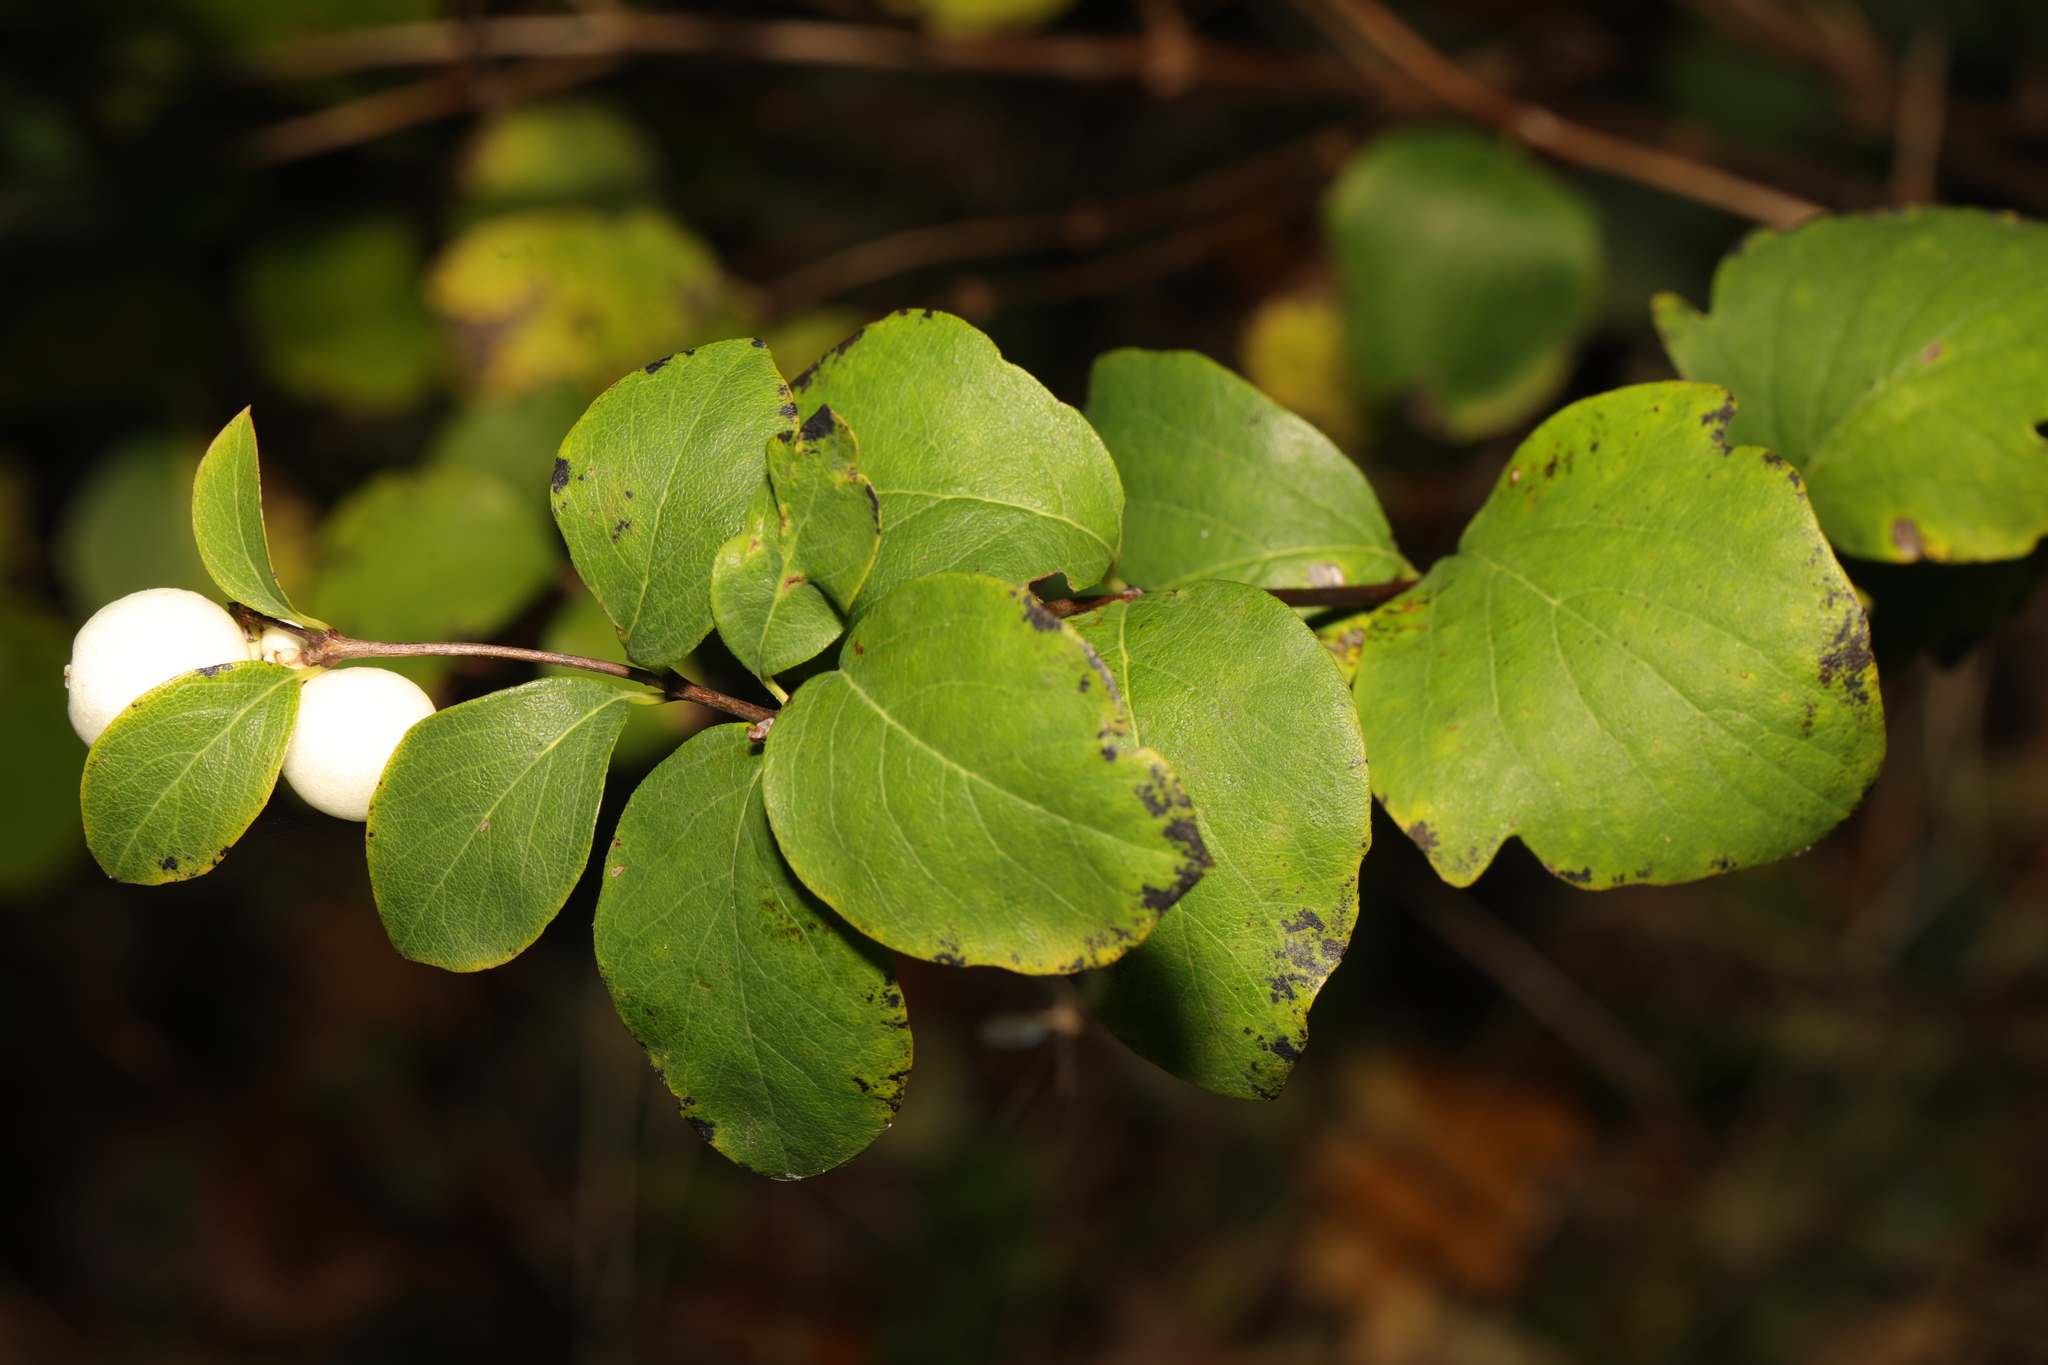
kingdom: Plantae
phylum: Tracheophyta
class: Magnoliopsida
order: Dipsacales
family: Caprifoliaceae
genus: Symphoricarpos
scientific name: Symphoricarpos albus
